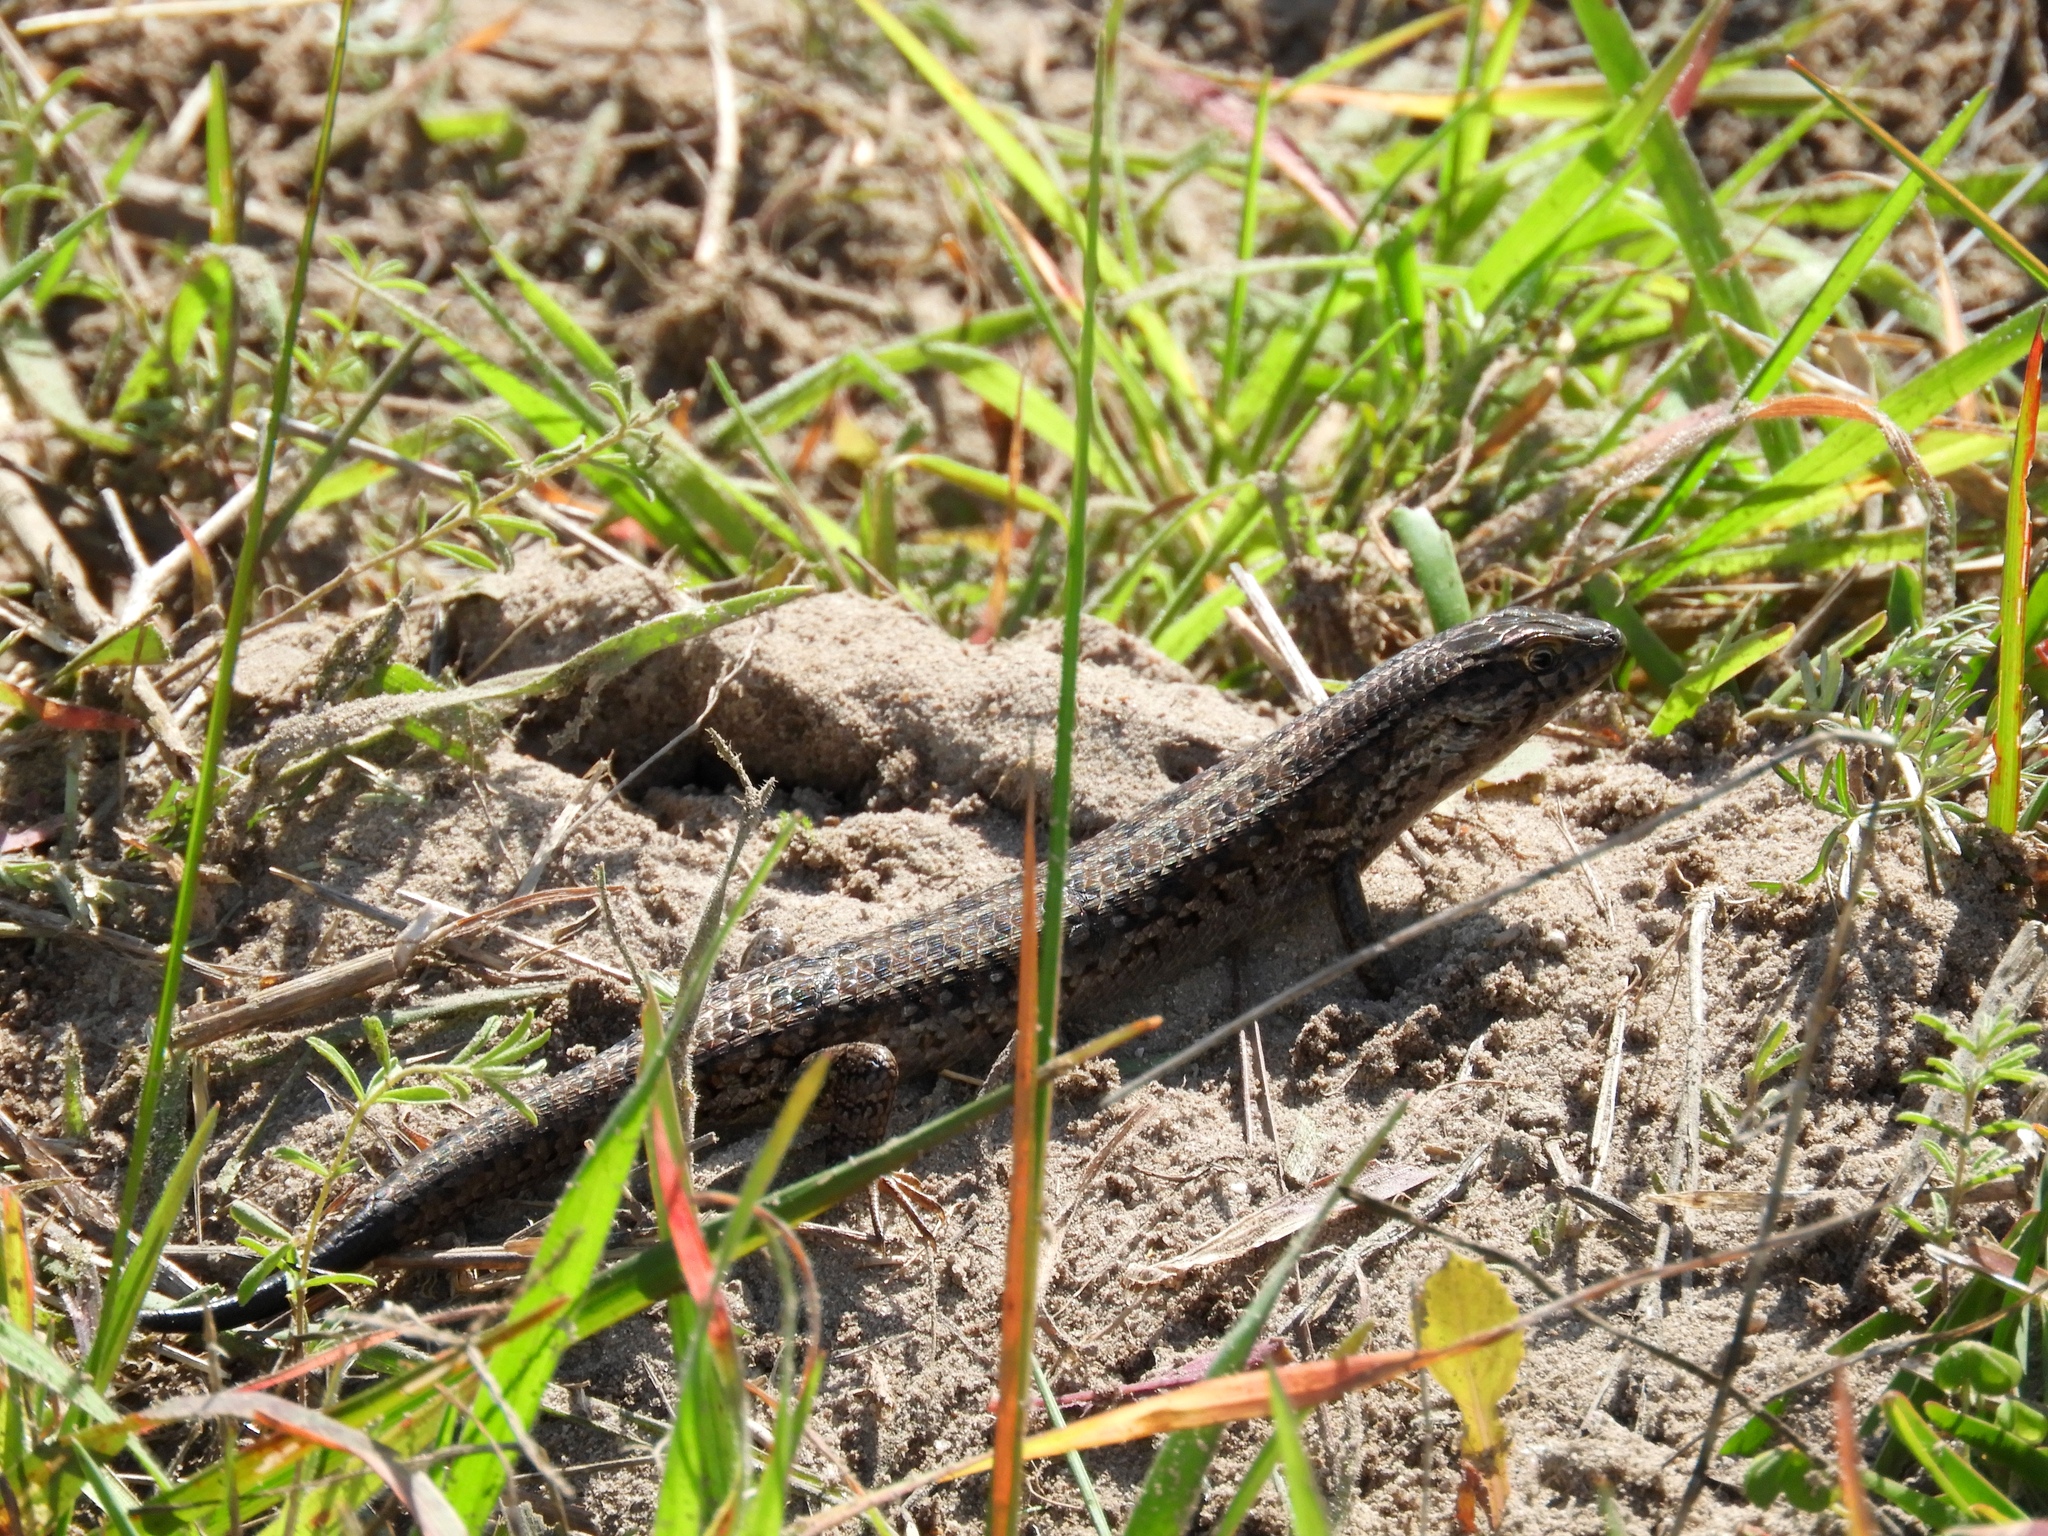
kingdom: Animalia
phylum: Chordata
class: Squamata
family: Scincidae
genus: Trachylepis
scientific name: Trachylepis capensis
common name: Cape skink
